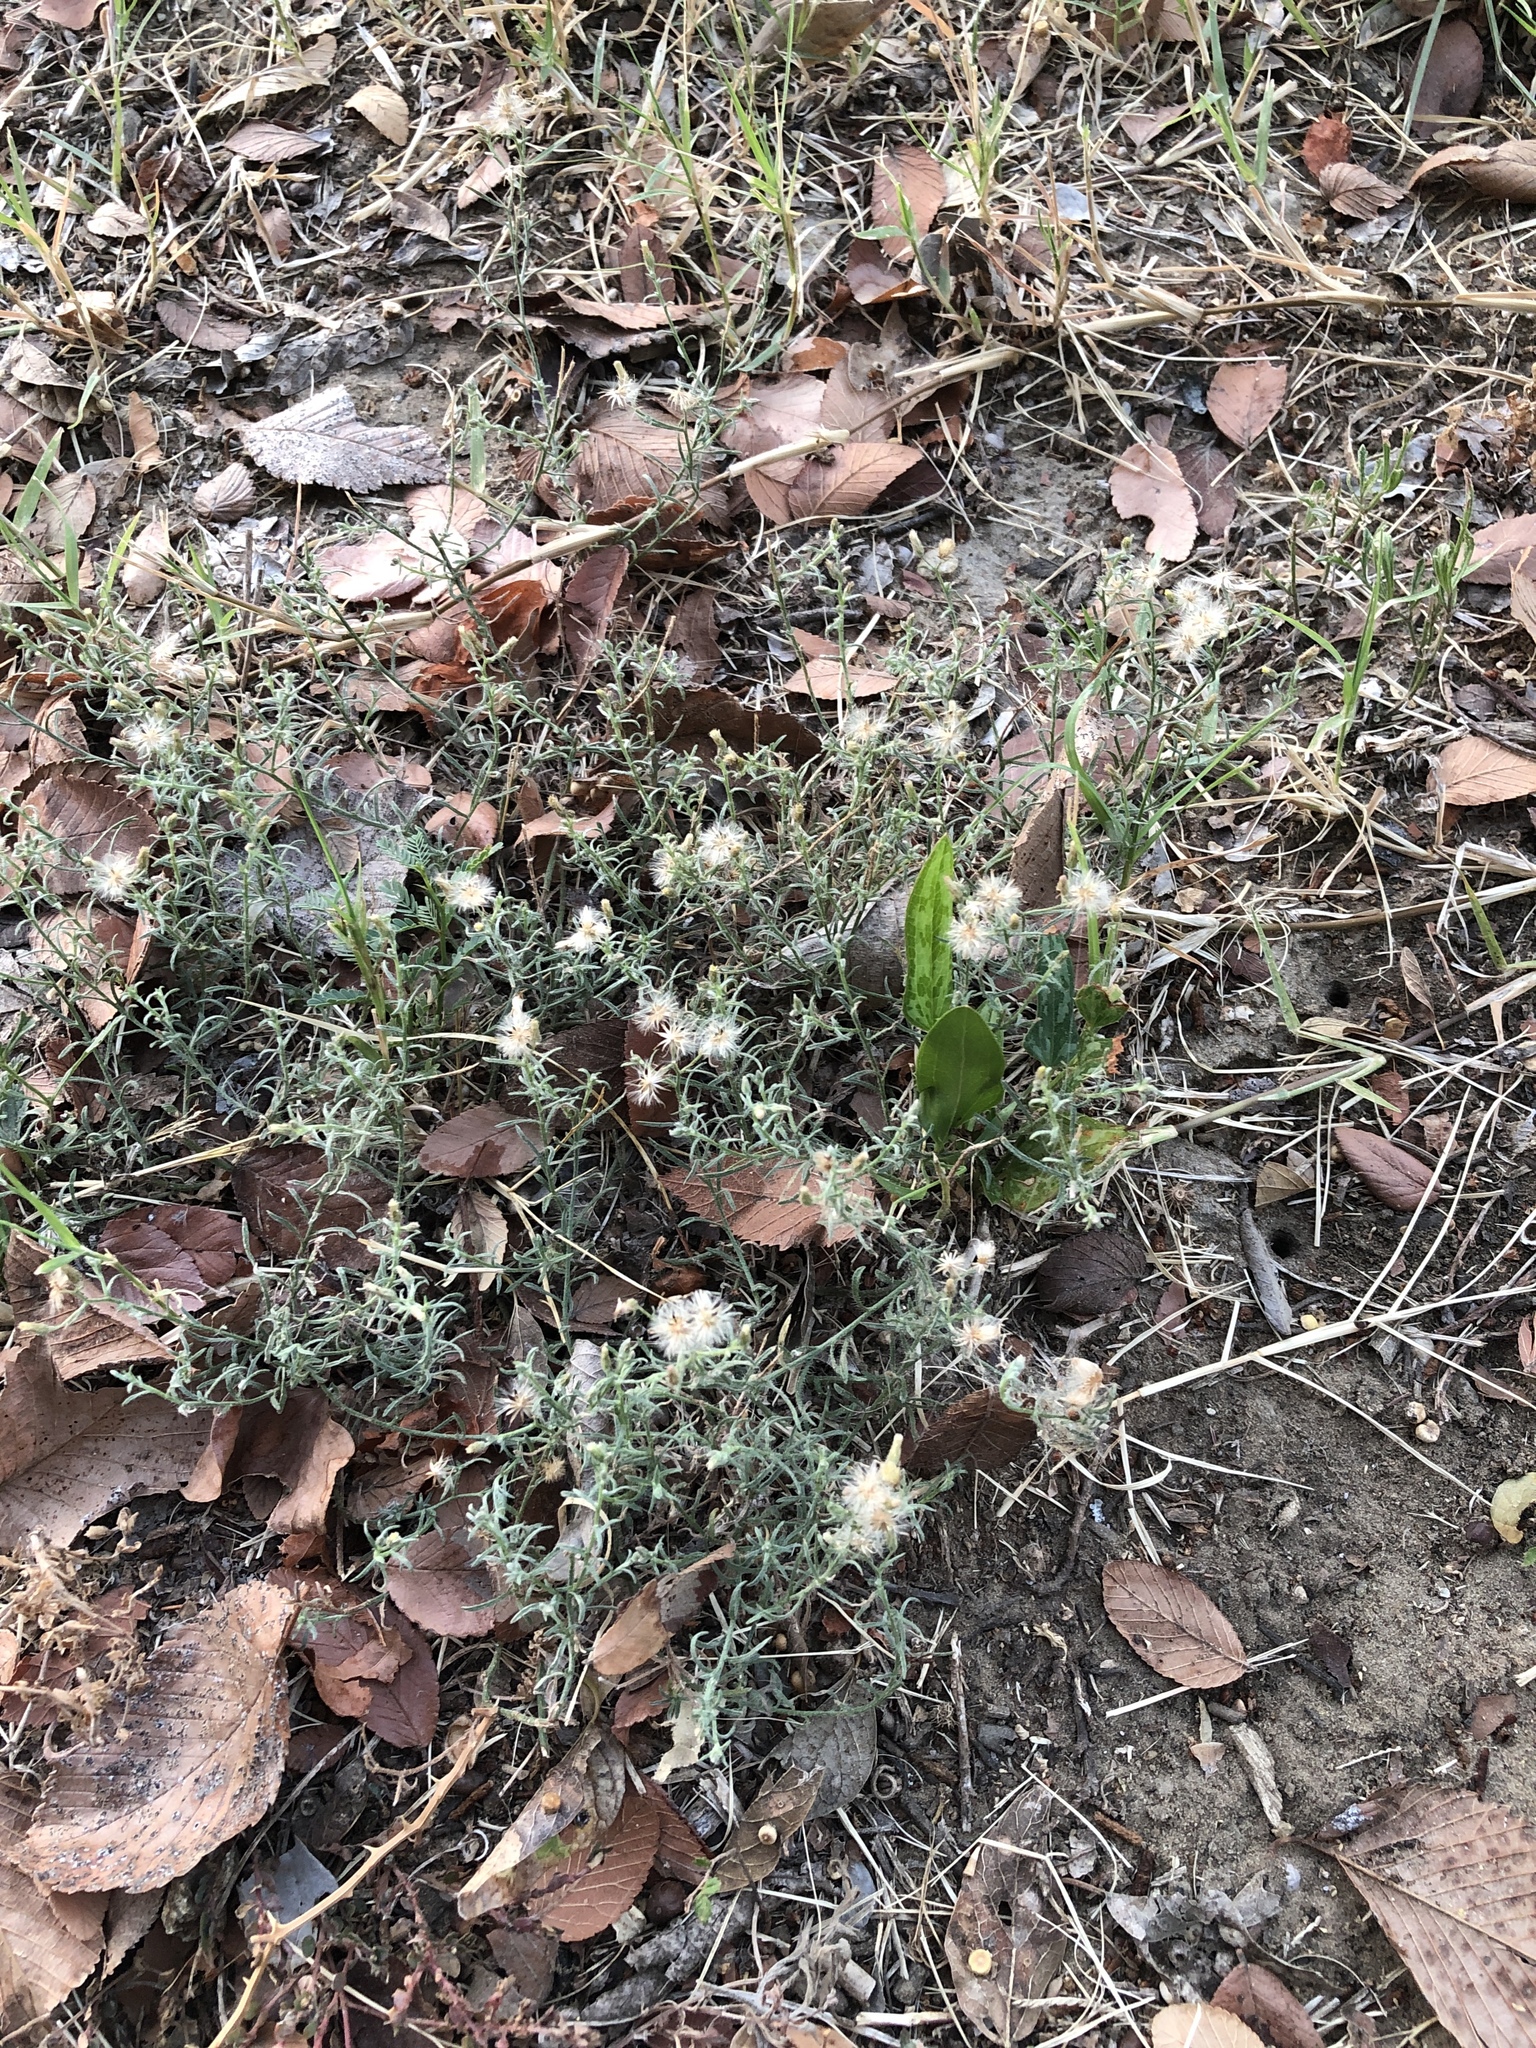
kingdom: Plantae
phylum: Tracheophyta
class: Magnoliopsida
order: Asterales
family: Asteraceae
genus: Erigeron
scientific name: Erigeron divaricatus
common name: Dwarf conyza
